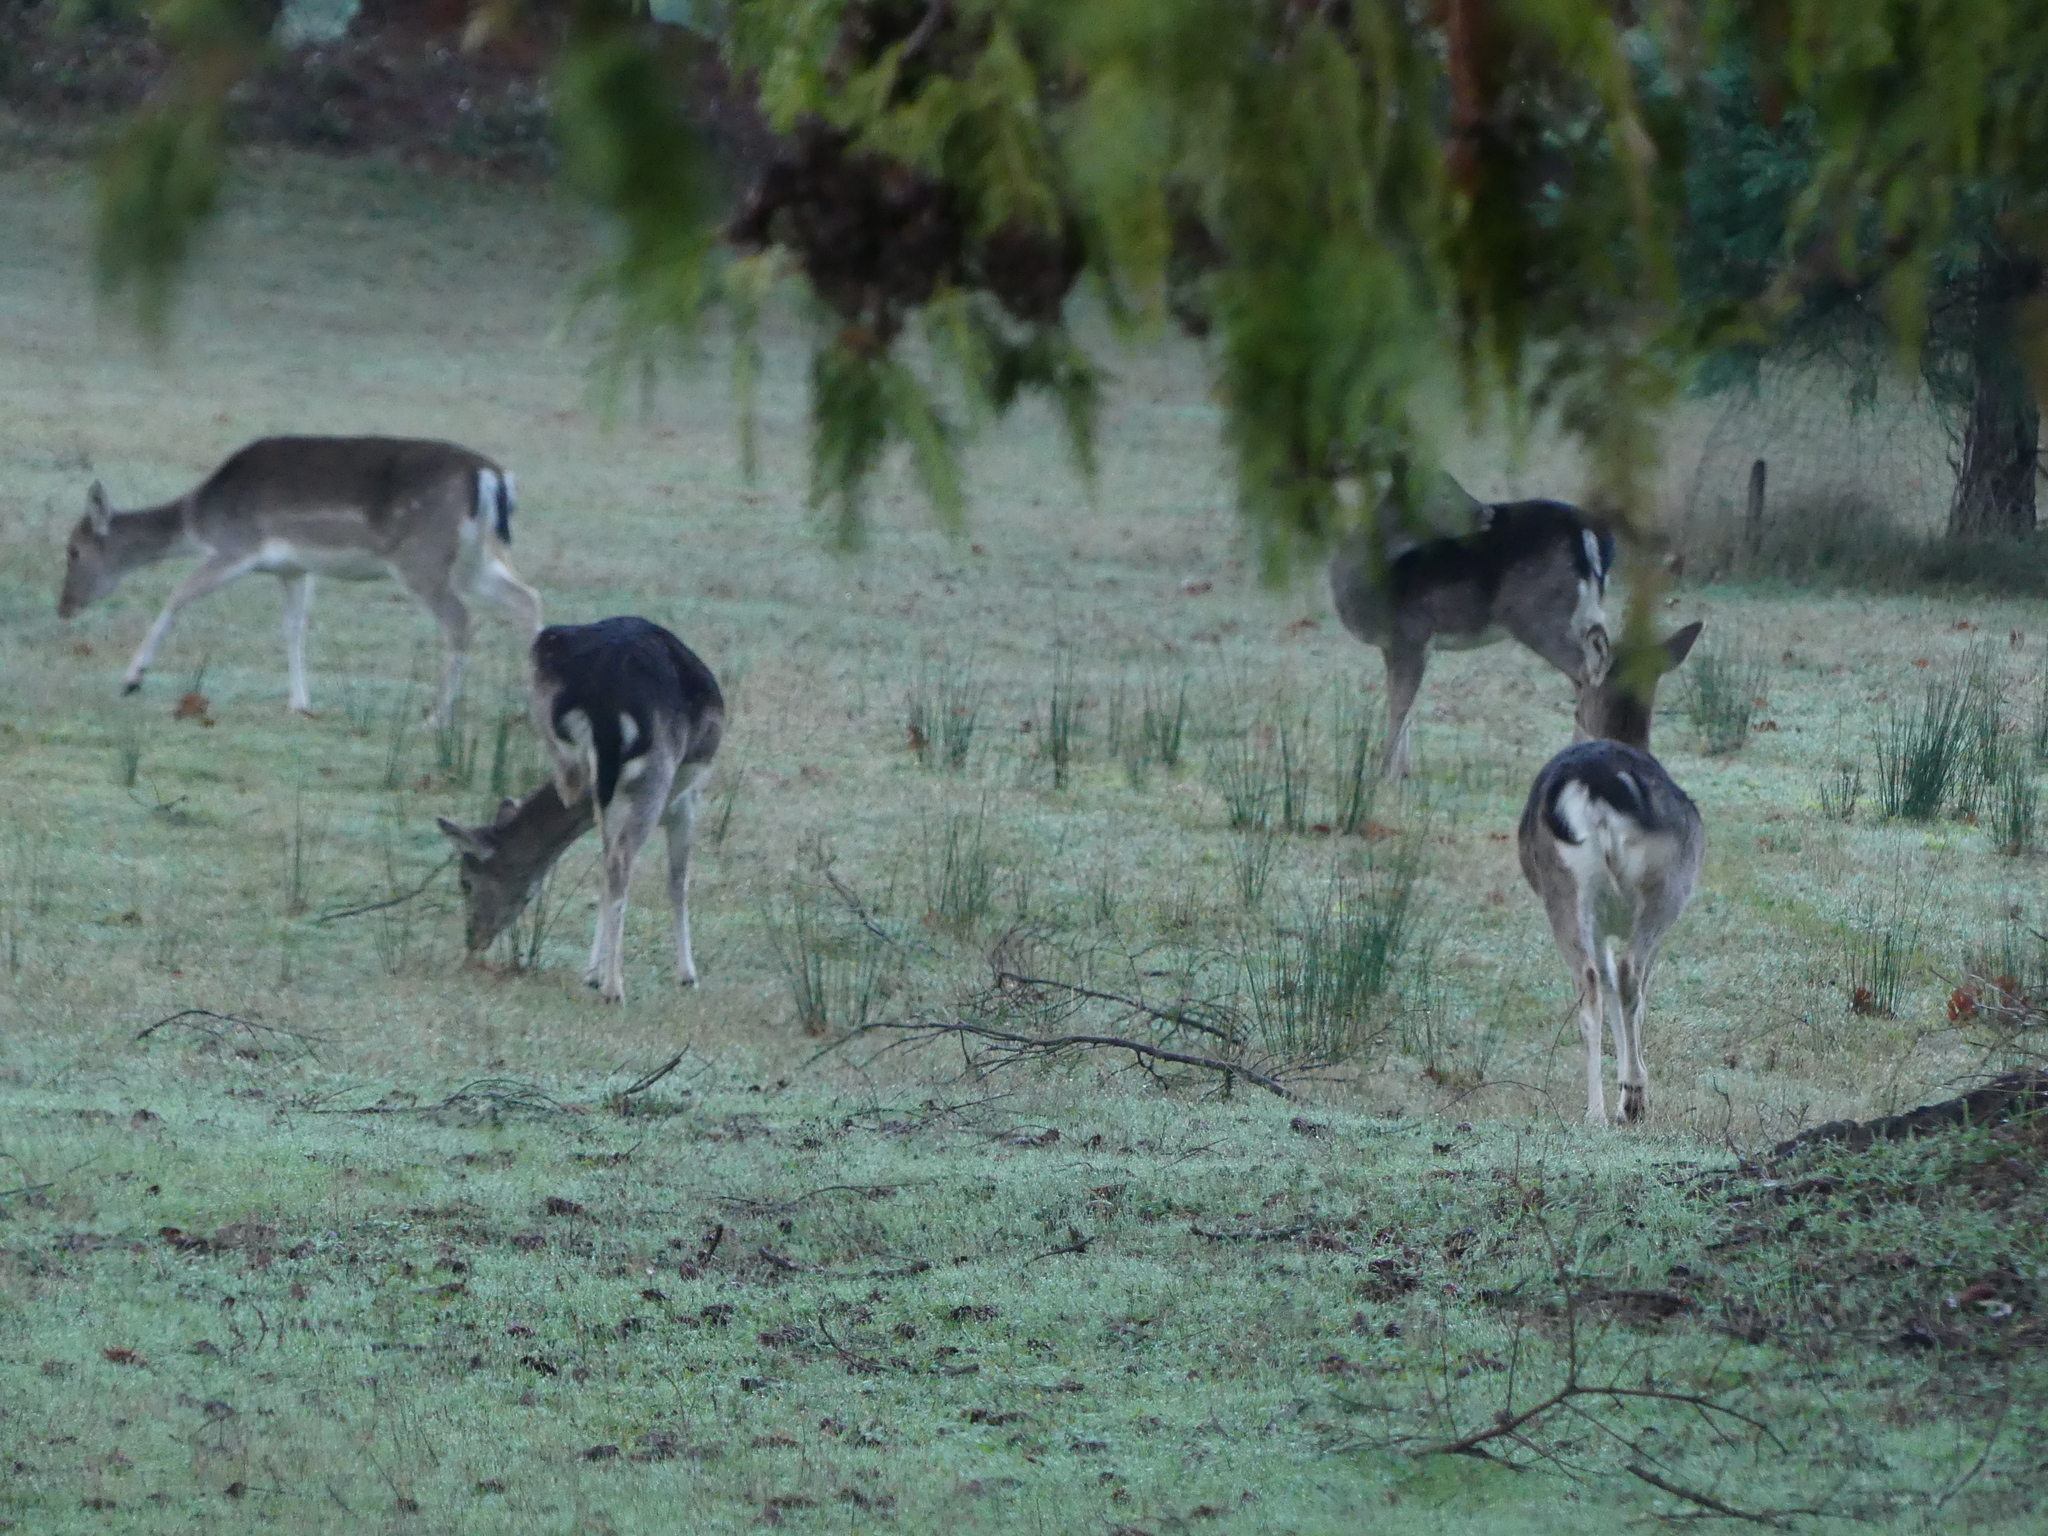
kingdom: Animalia
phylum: Chordata
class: Mammalia
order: Artiodactyla
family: Cervidae
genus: Dama
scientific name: Dama dama
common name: Fallow deer
